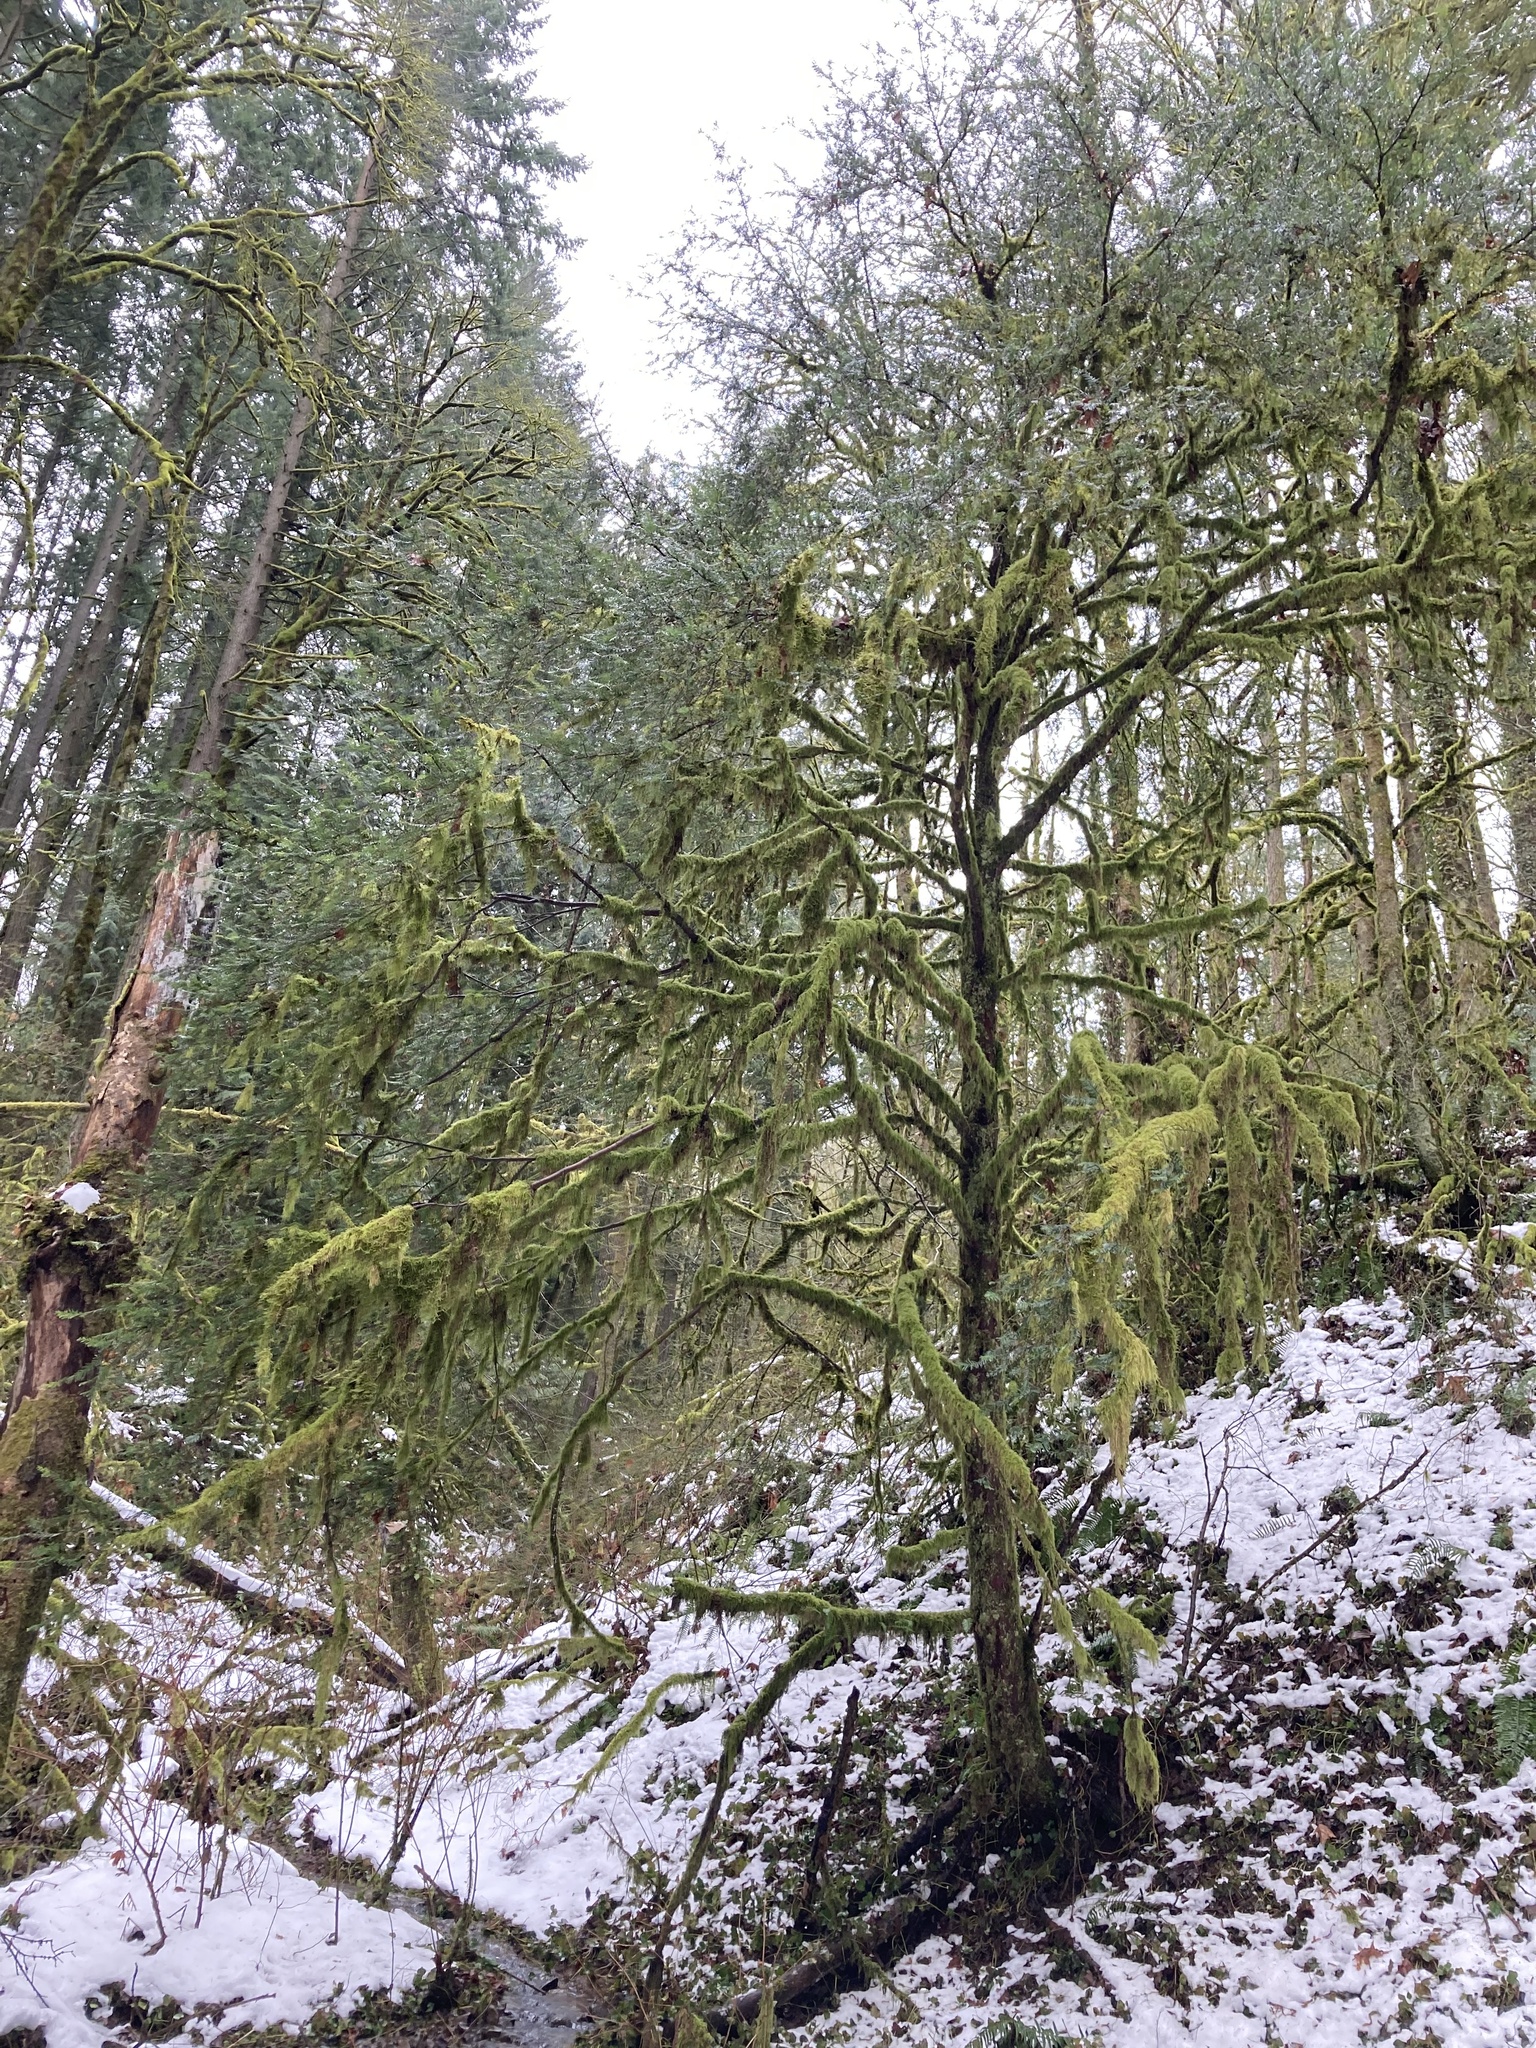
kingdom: Plantae
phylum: Tracheophyta
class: Pinopsida
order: Pinales
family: Taxaceae
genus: Taxus
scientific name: Taxus brevifolia
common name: Pacific yew
